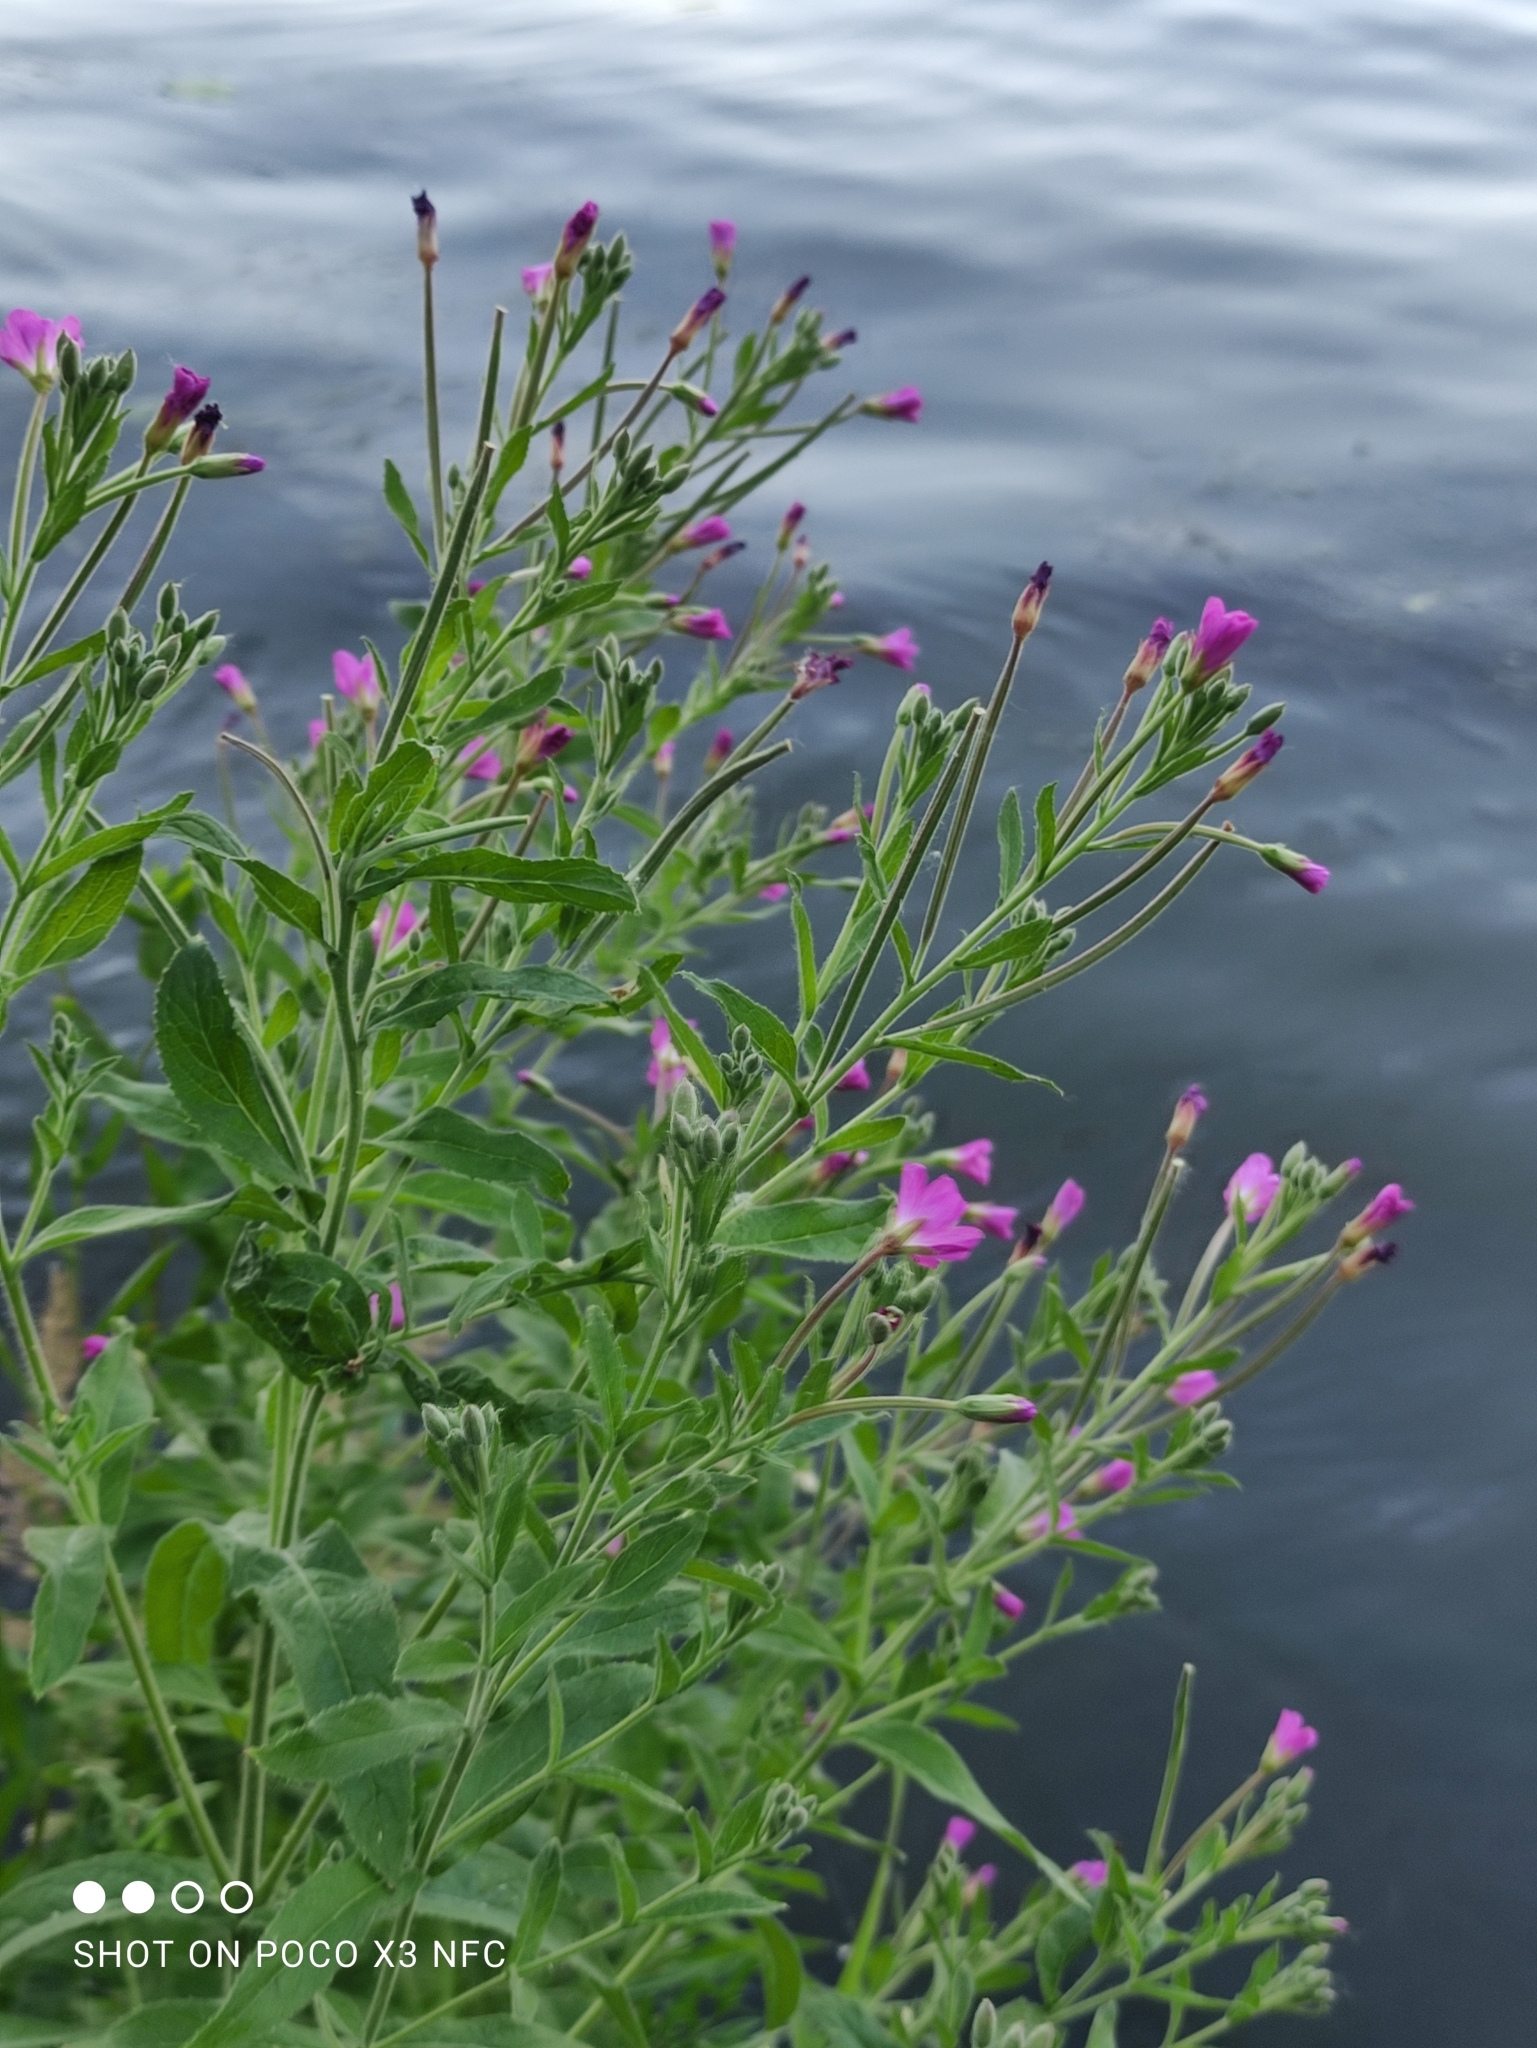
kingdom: Plantae
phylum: Tracheophyta
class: Magnoliopsida
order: Myrtales
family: Onagraceae
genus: Epilobium
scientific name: Epilobium hirsutum
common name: Great willowherb
